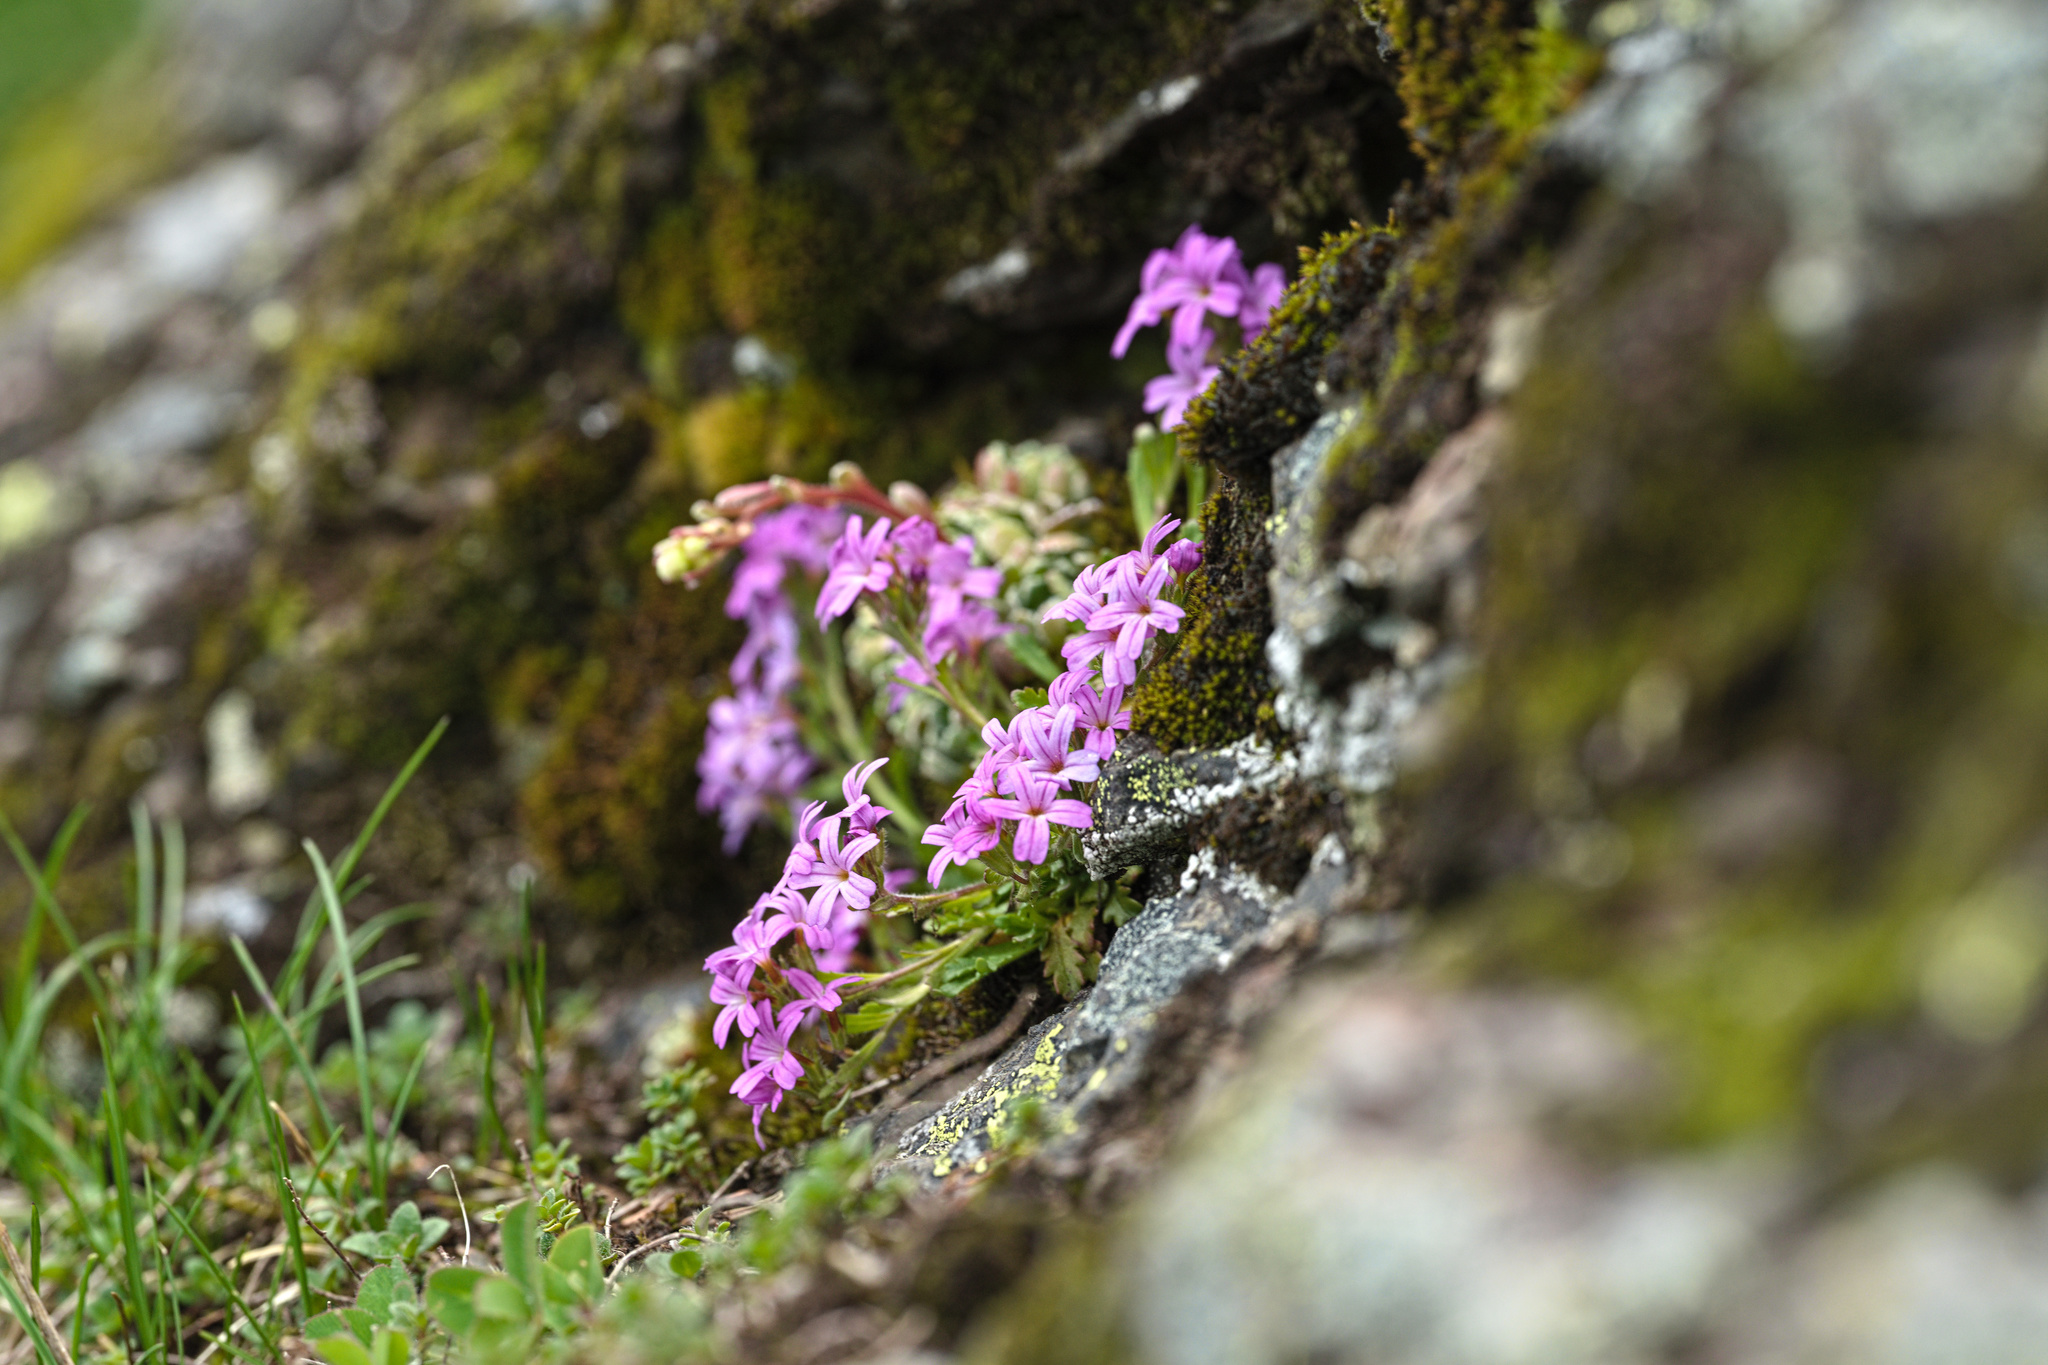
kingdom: Plantae
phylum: Tracheophyta
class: Magnoliopsida
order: Lamiales
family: Plantaginaceae
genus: Erinus
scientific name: Erinus alpinus
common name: Fairy foxglove
